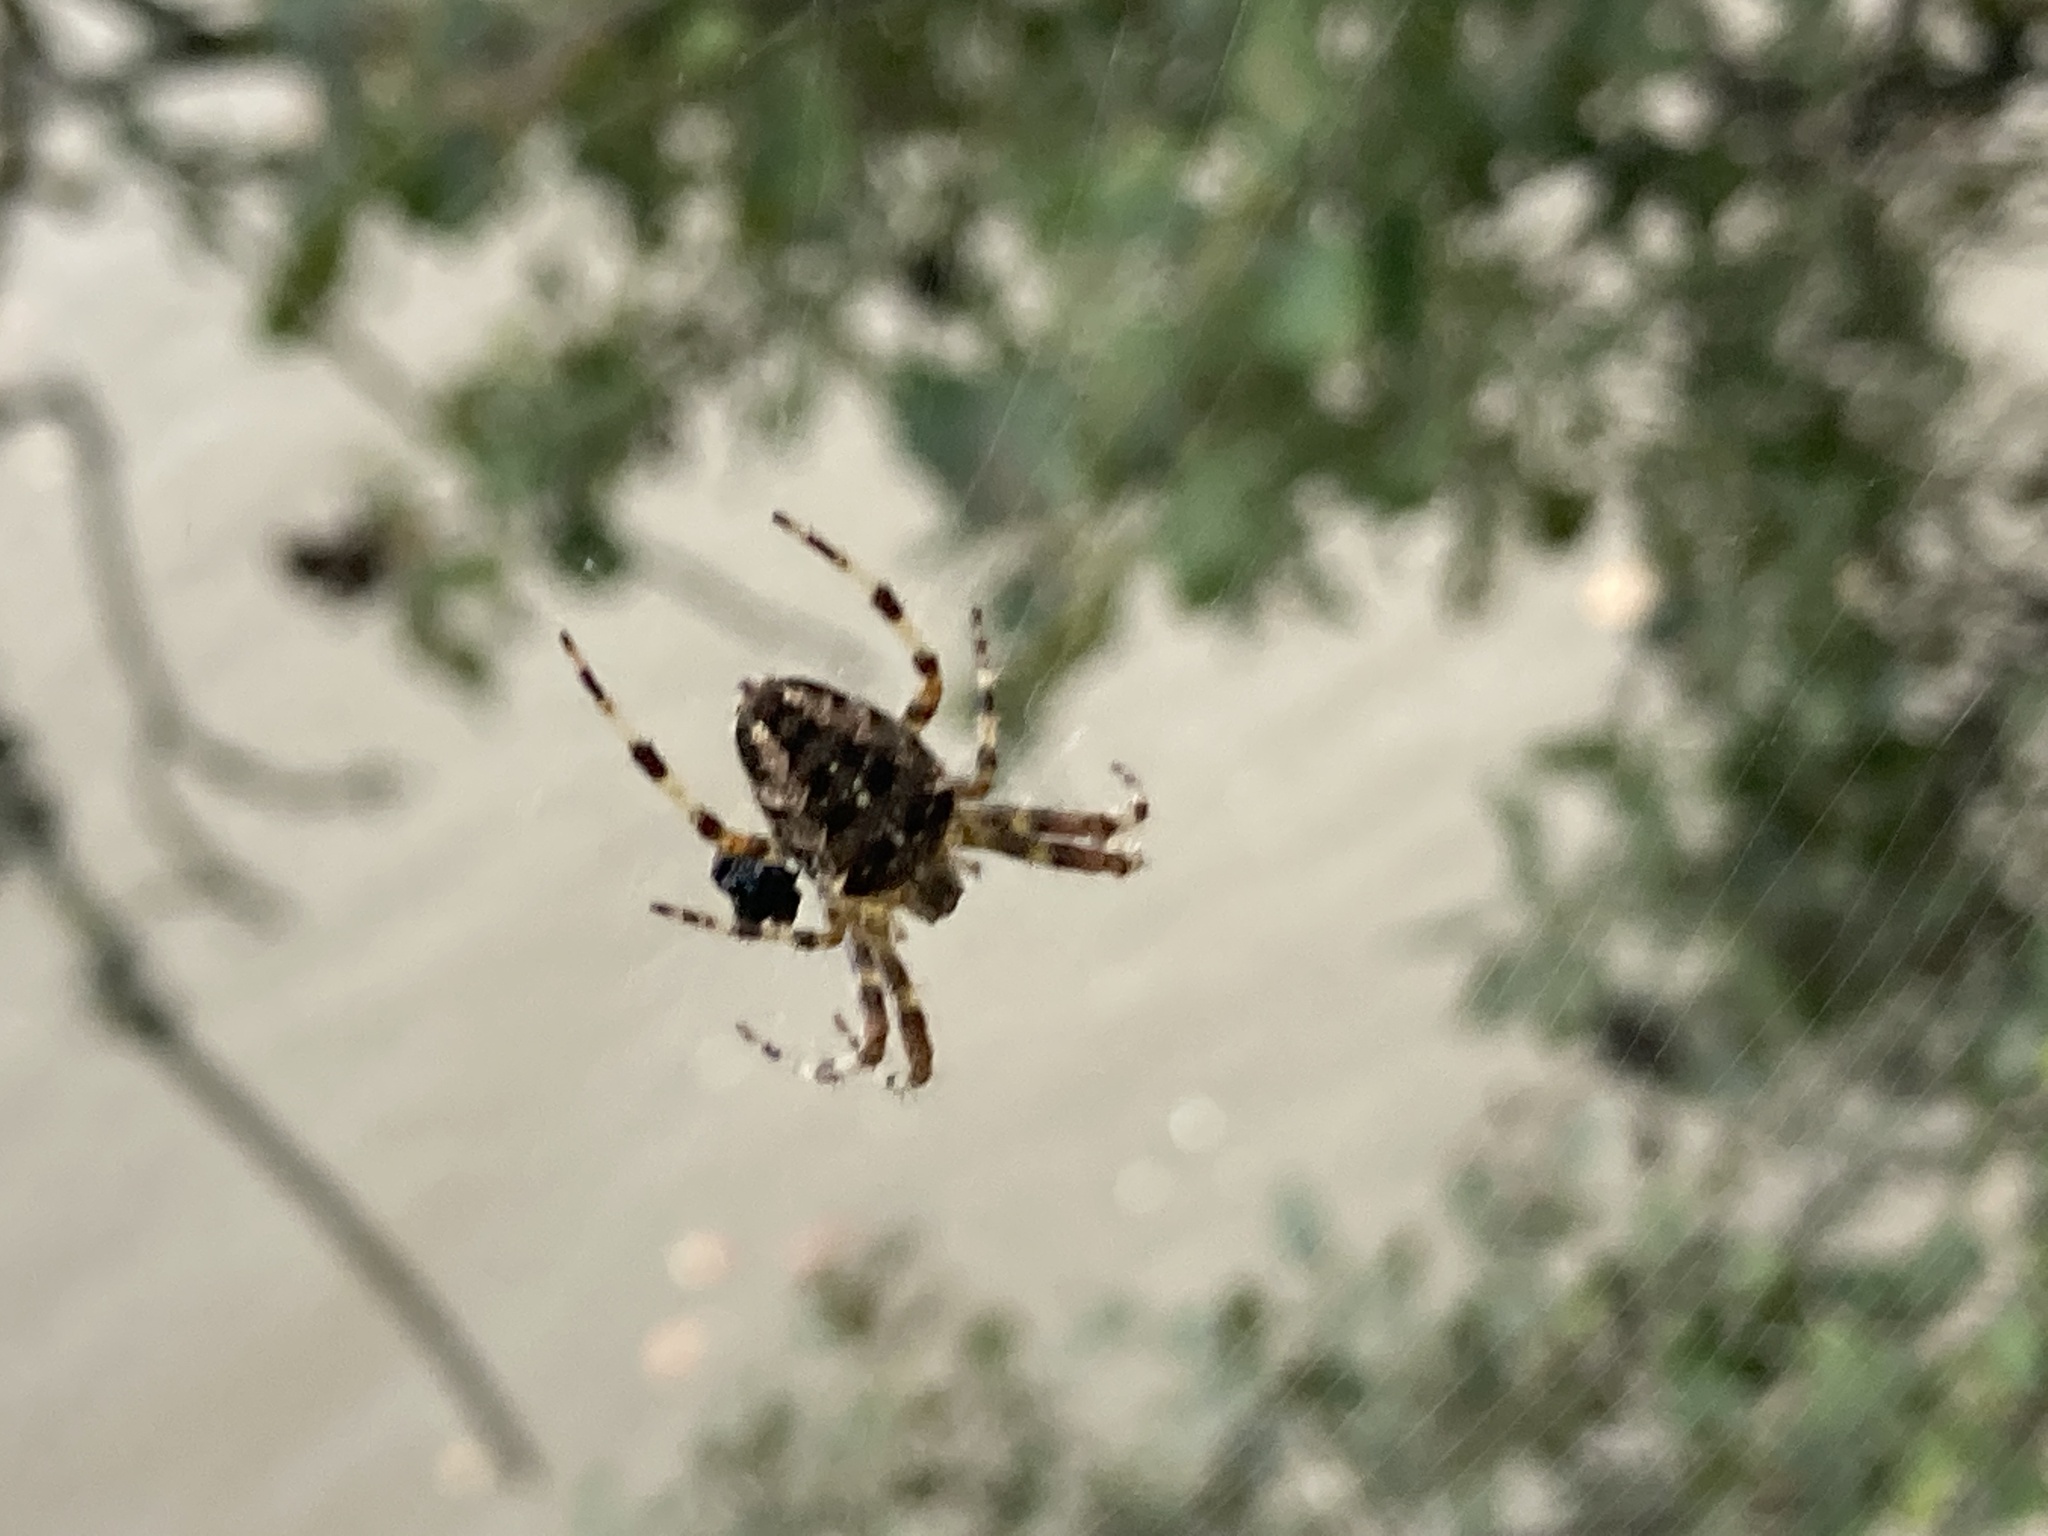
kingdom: Animalia
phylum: Arthropoda
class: Arachnida
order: Araneae
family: Araneidae
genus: Araneus
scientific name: Araneus diadematus
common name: Cross orbweaver
